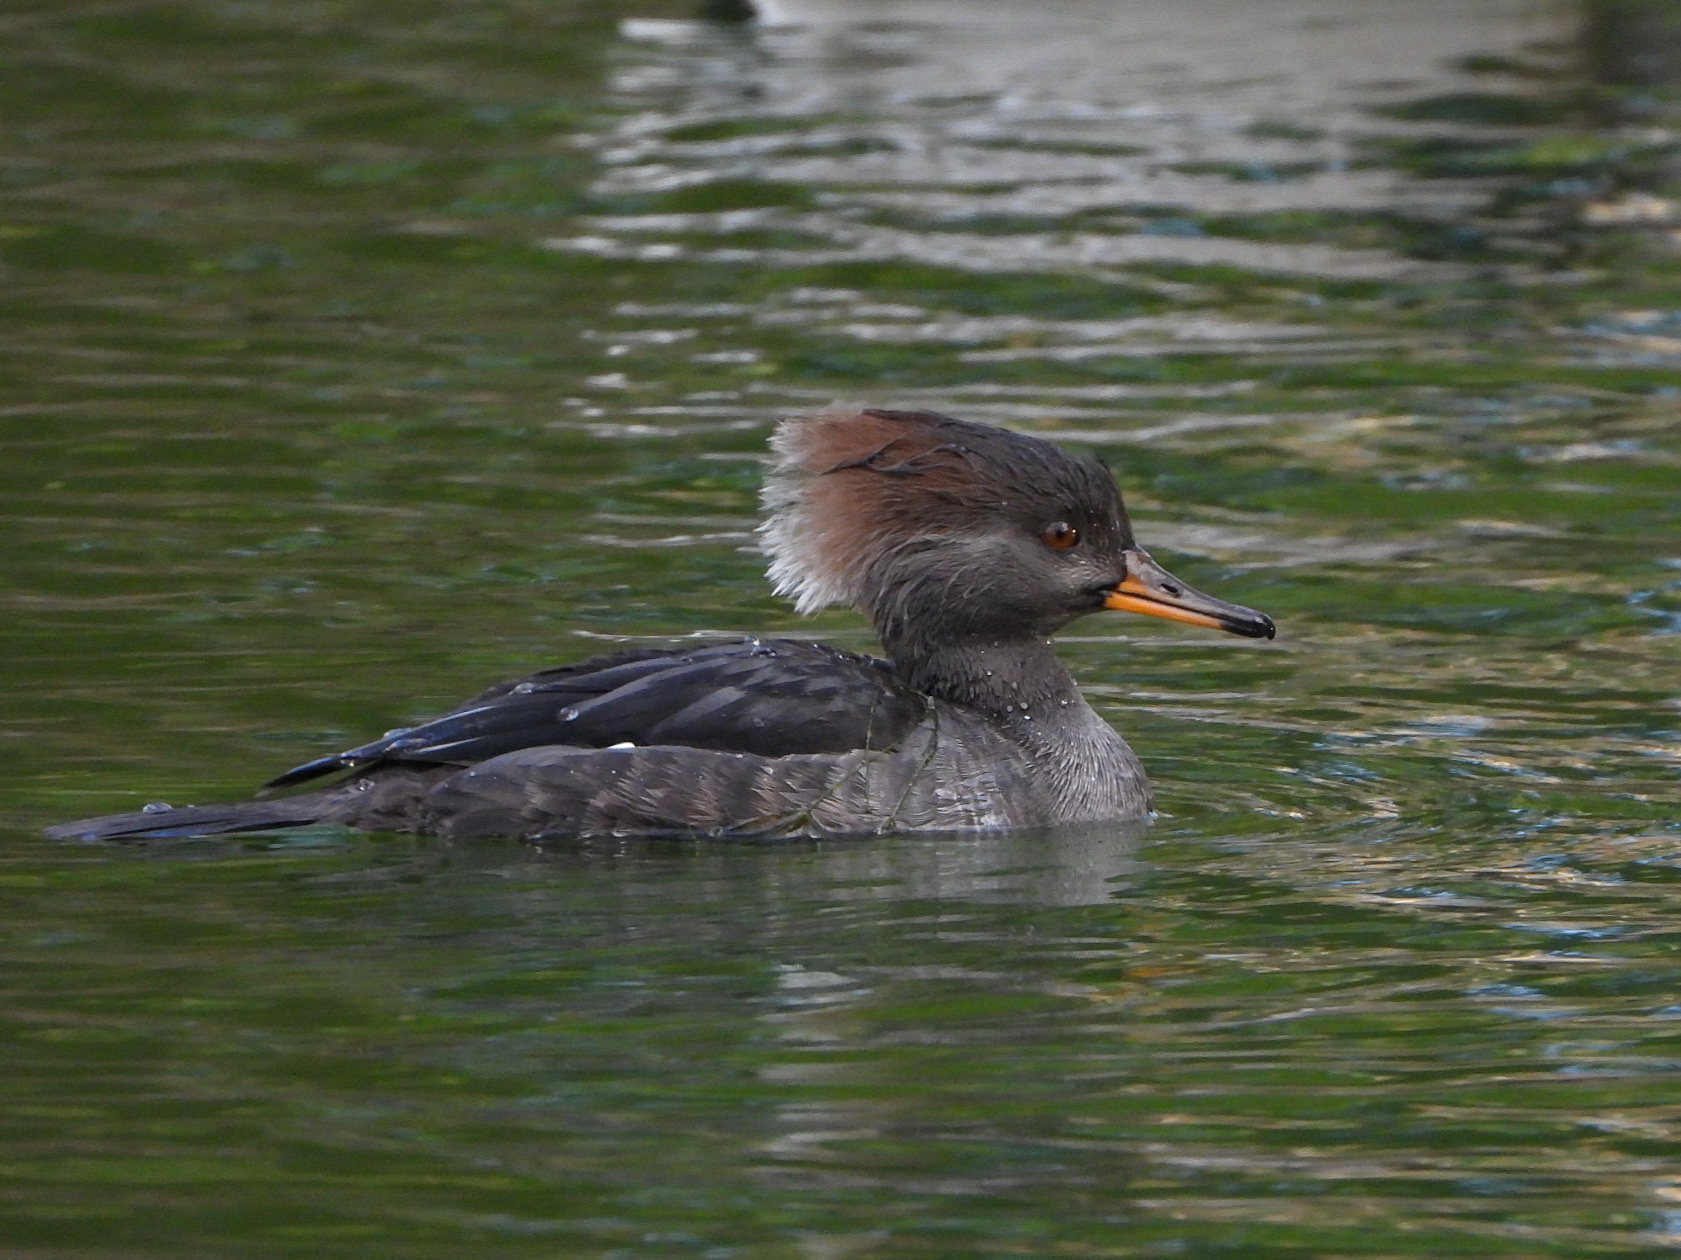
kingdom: Animalia
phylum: Chordata
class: Aves
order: Anseriformes
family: Anatidae
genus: Lophodytes
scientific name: Lophodytes cucullatus
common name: Hooded merganser
